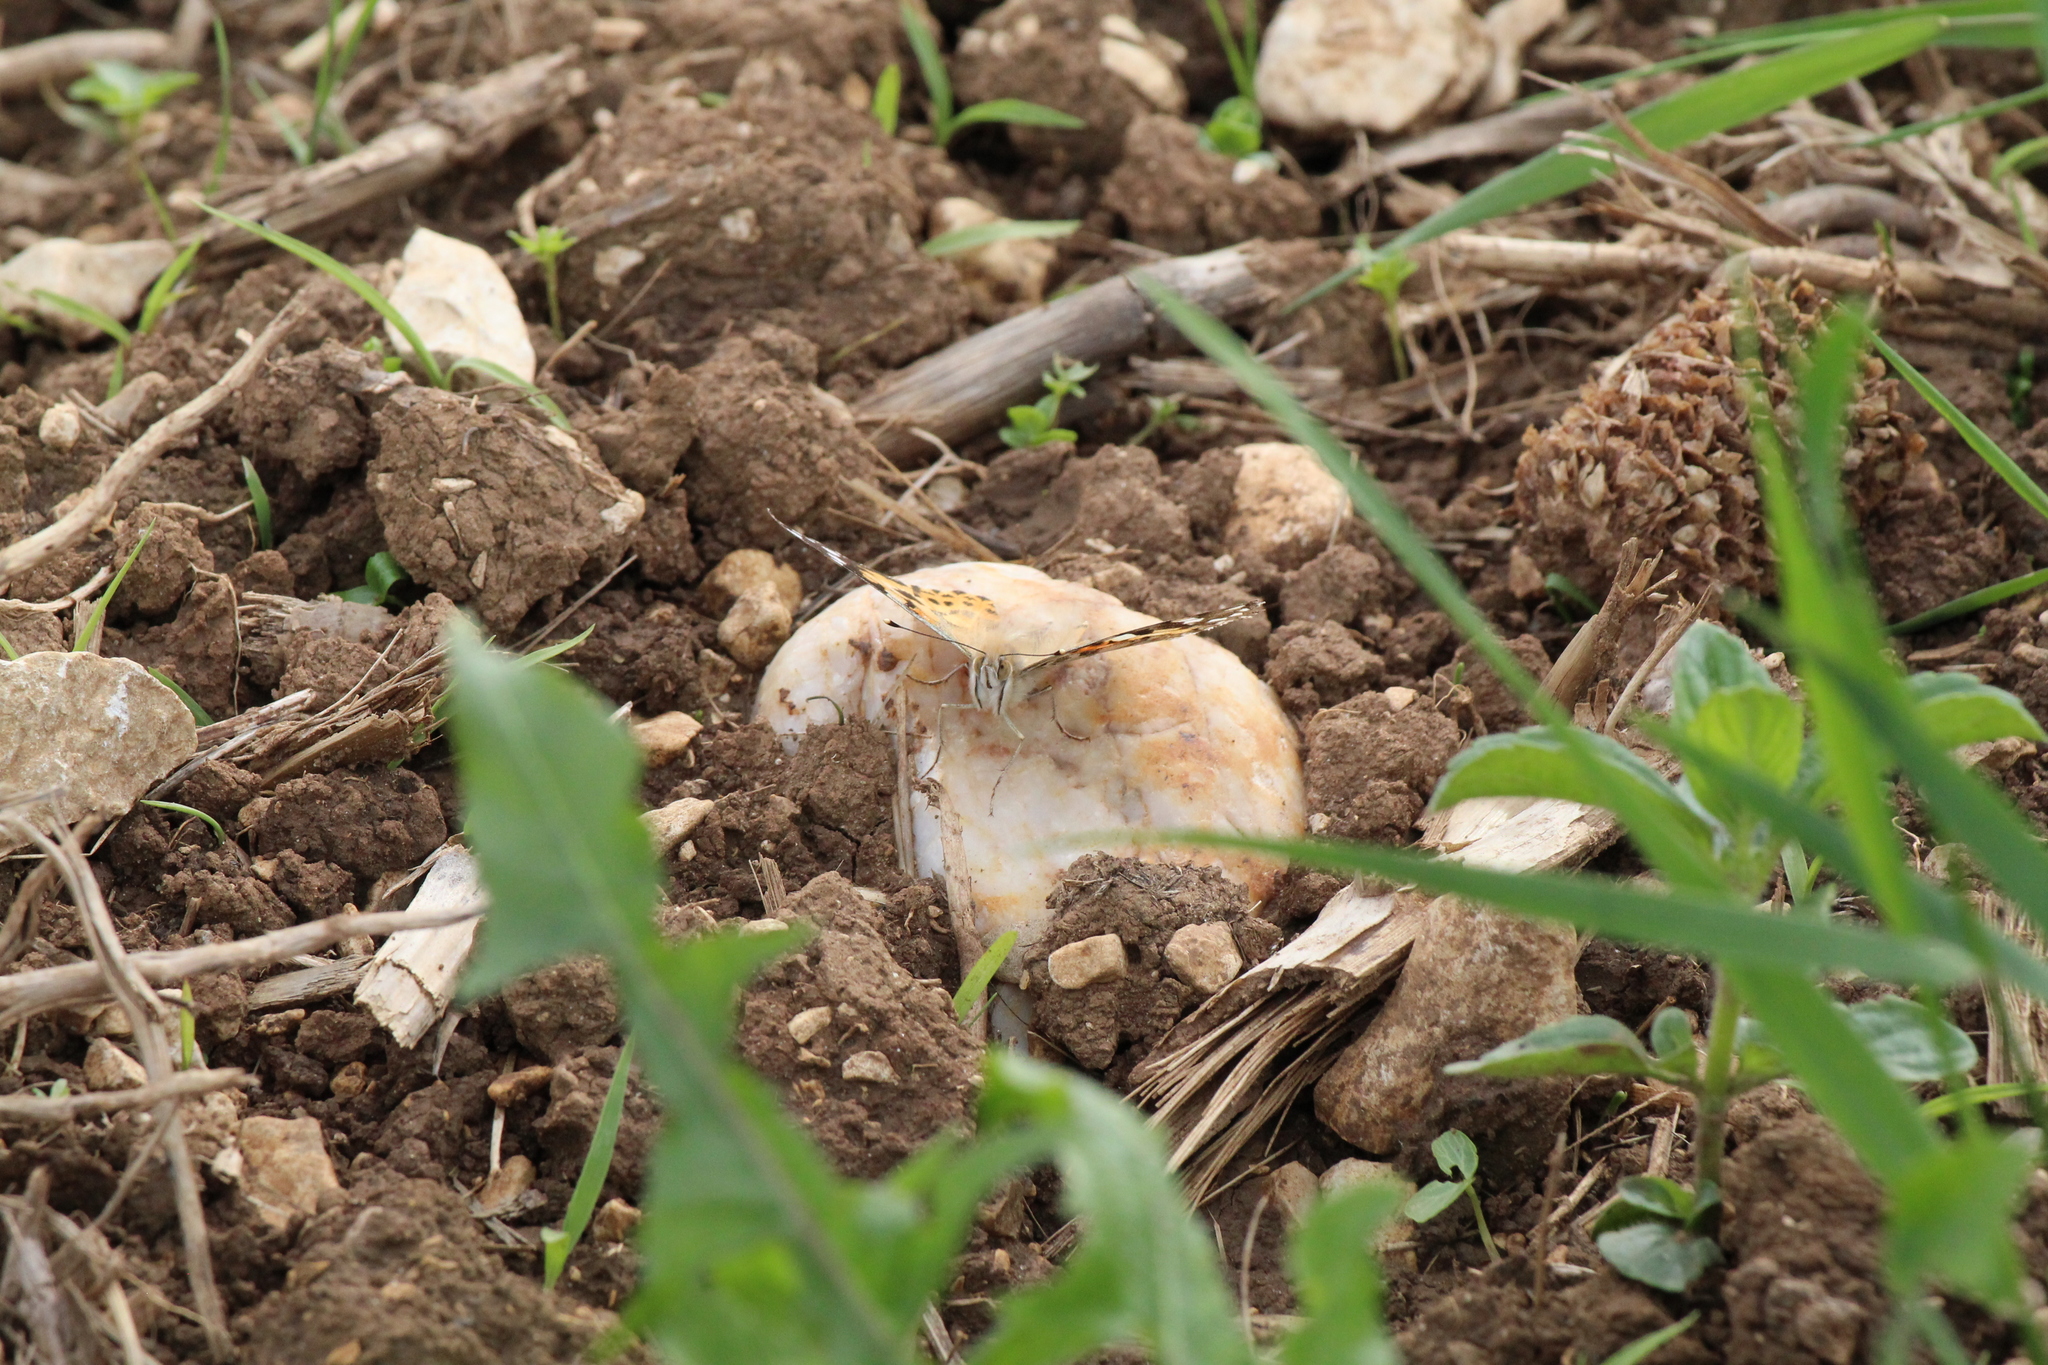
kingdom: Animalia
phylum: Arthropoda
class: Insecta
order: Lepidoptera
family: Nymphalidae
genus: Vanessa
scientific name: Vanessa cardui
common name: Painted lady
